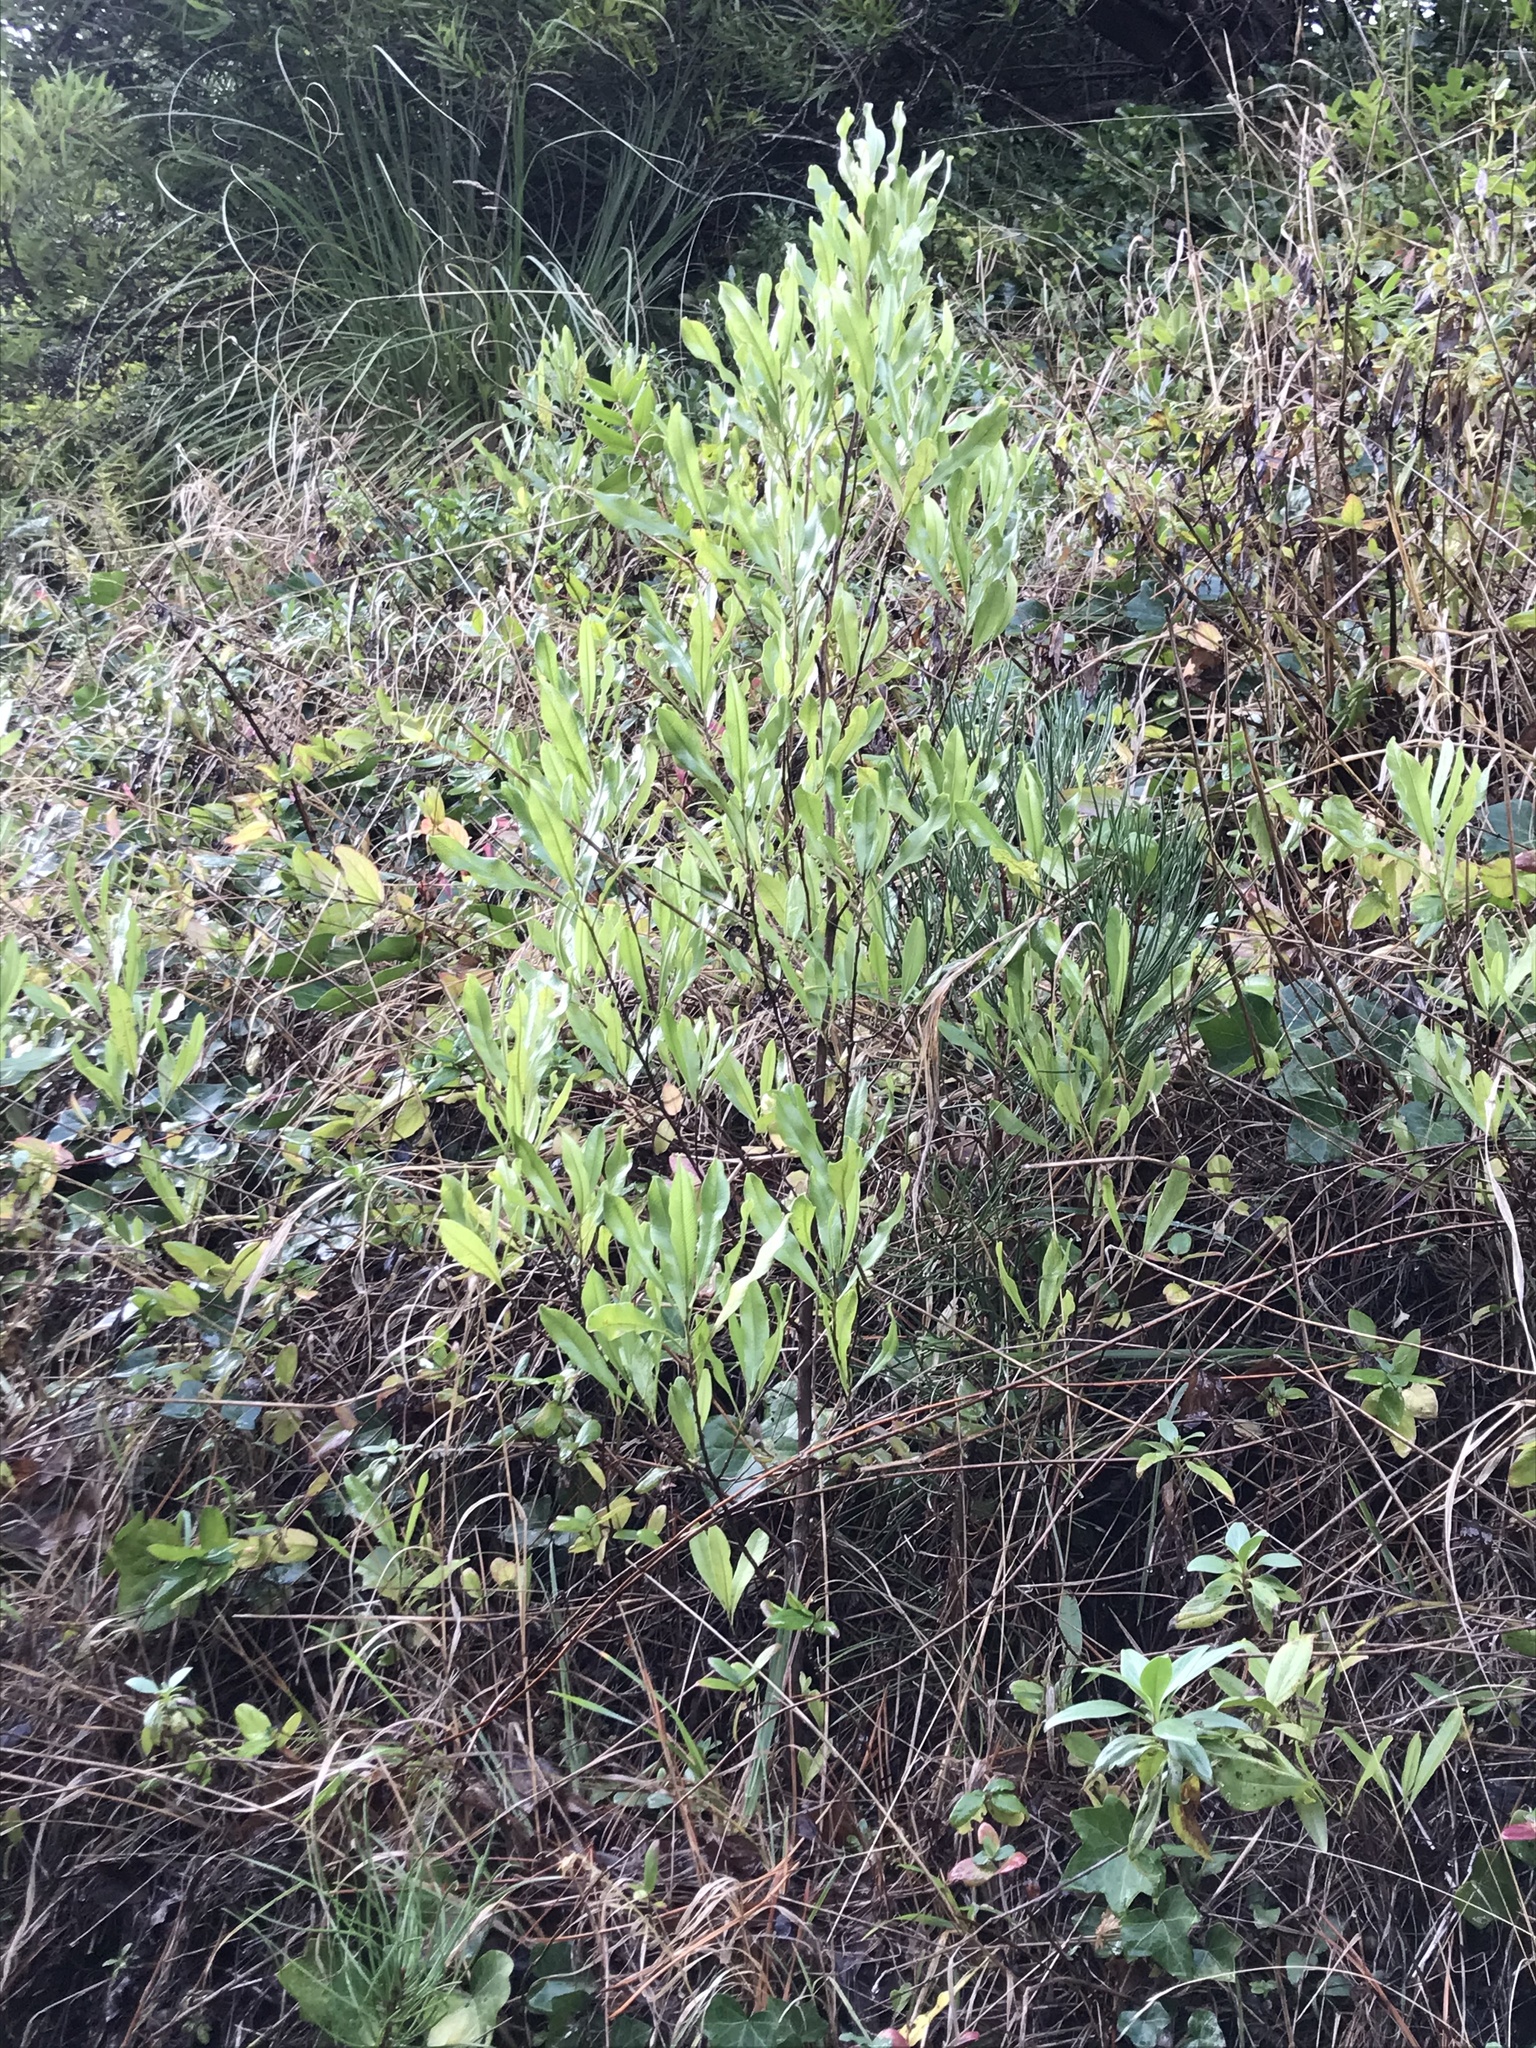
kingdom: Plantae
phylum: Tracheophyta
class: Magnoliopsida
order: Sapindales
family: Sapindaceae
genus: Dodonaea
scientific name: Dodonaea viscosa
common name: Hopbush
